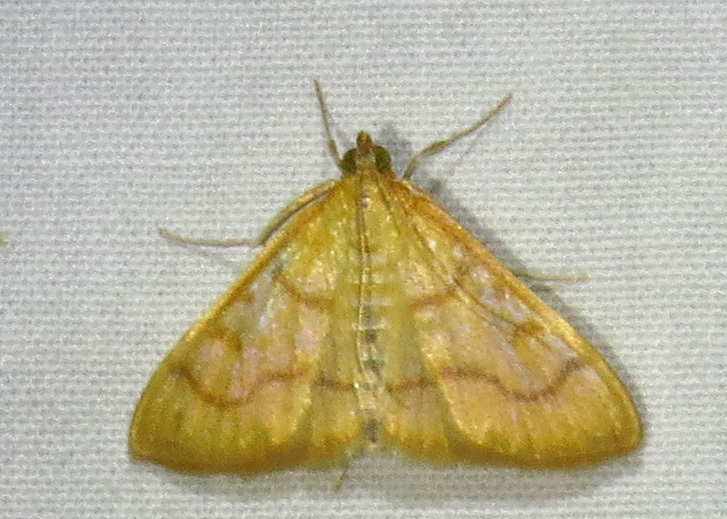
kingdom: Animalia
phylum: Arthropoda
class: Insecta
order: Lepidoptera
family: Crambidae
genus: Helvibotys
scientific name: Helvibotys helvialis
